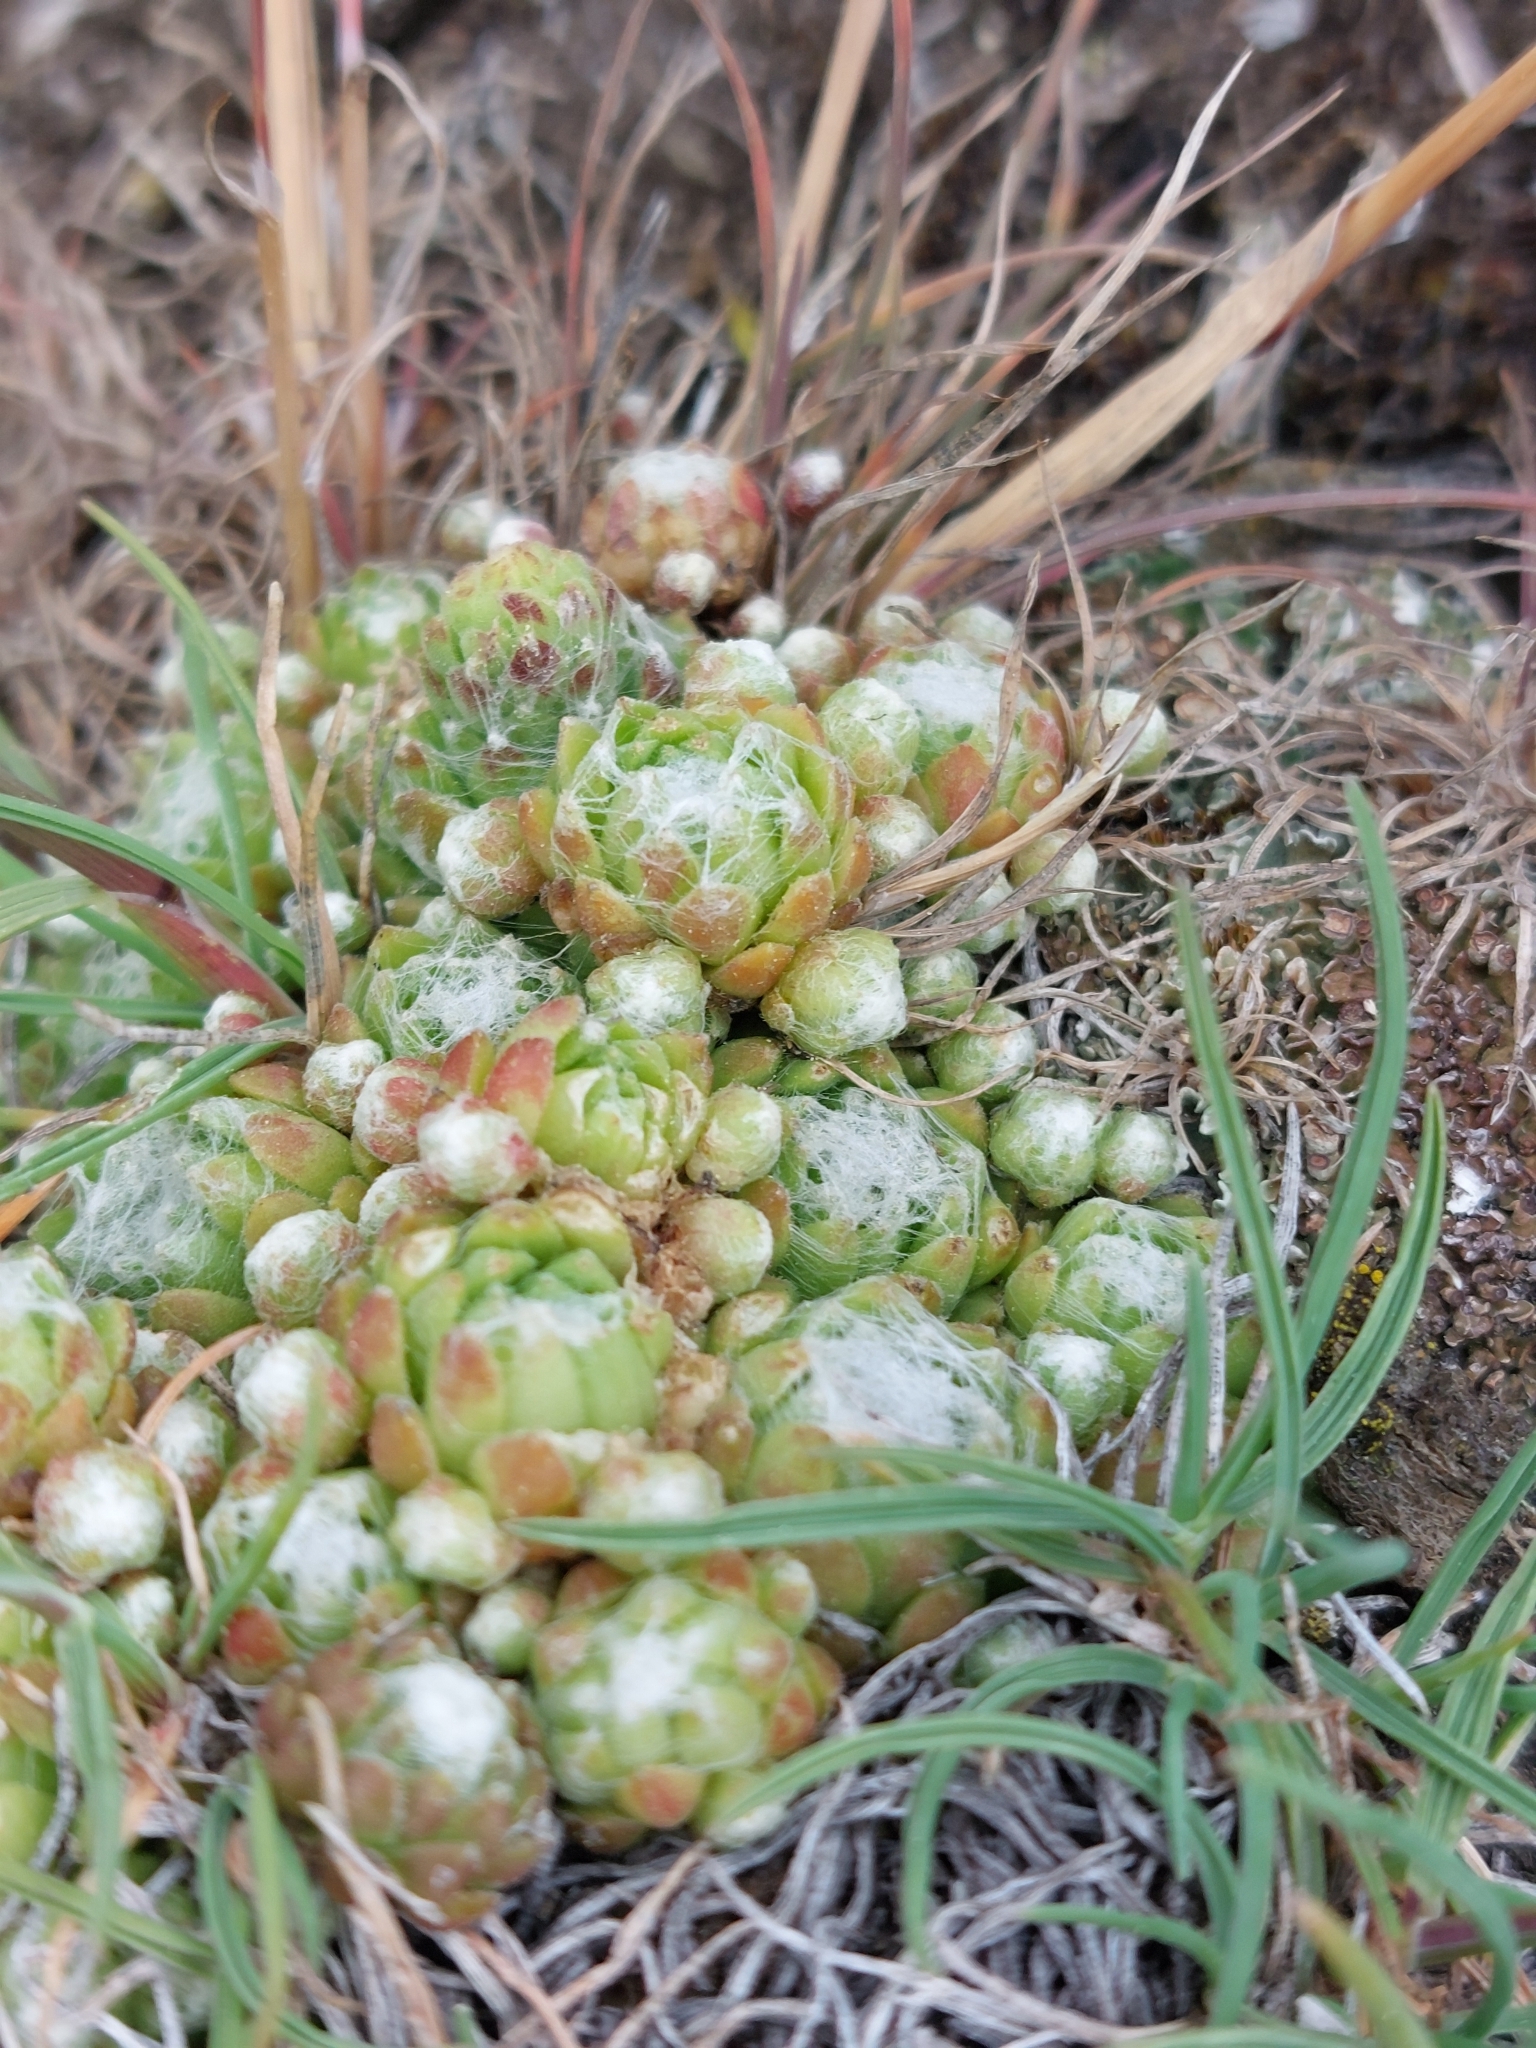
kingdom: Plantae
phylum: Tracheophyta
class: Magnoliopsida
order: Saxifragales
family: Crassulaceae
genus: Sempervivum
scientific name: Sempervivum arachnoideum
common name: Cobweb house-leek
